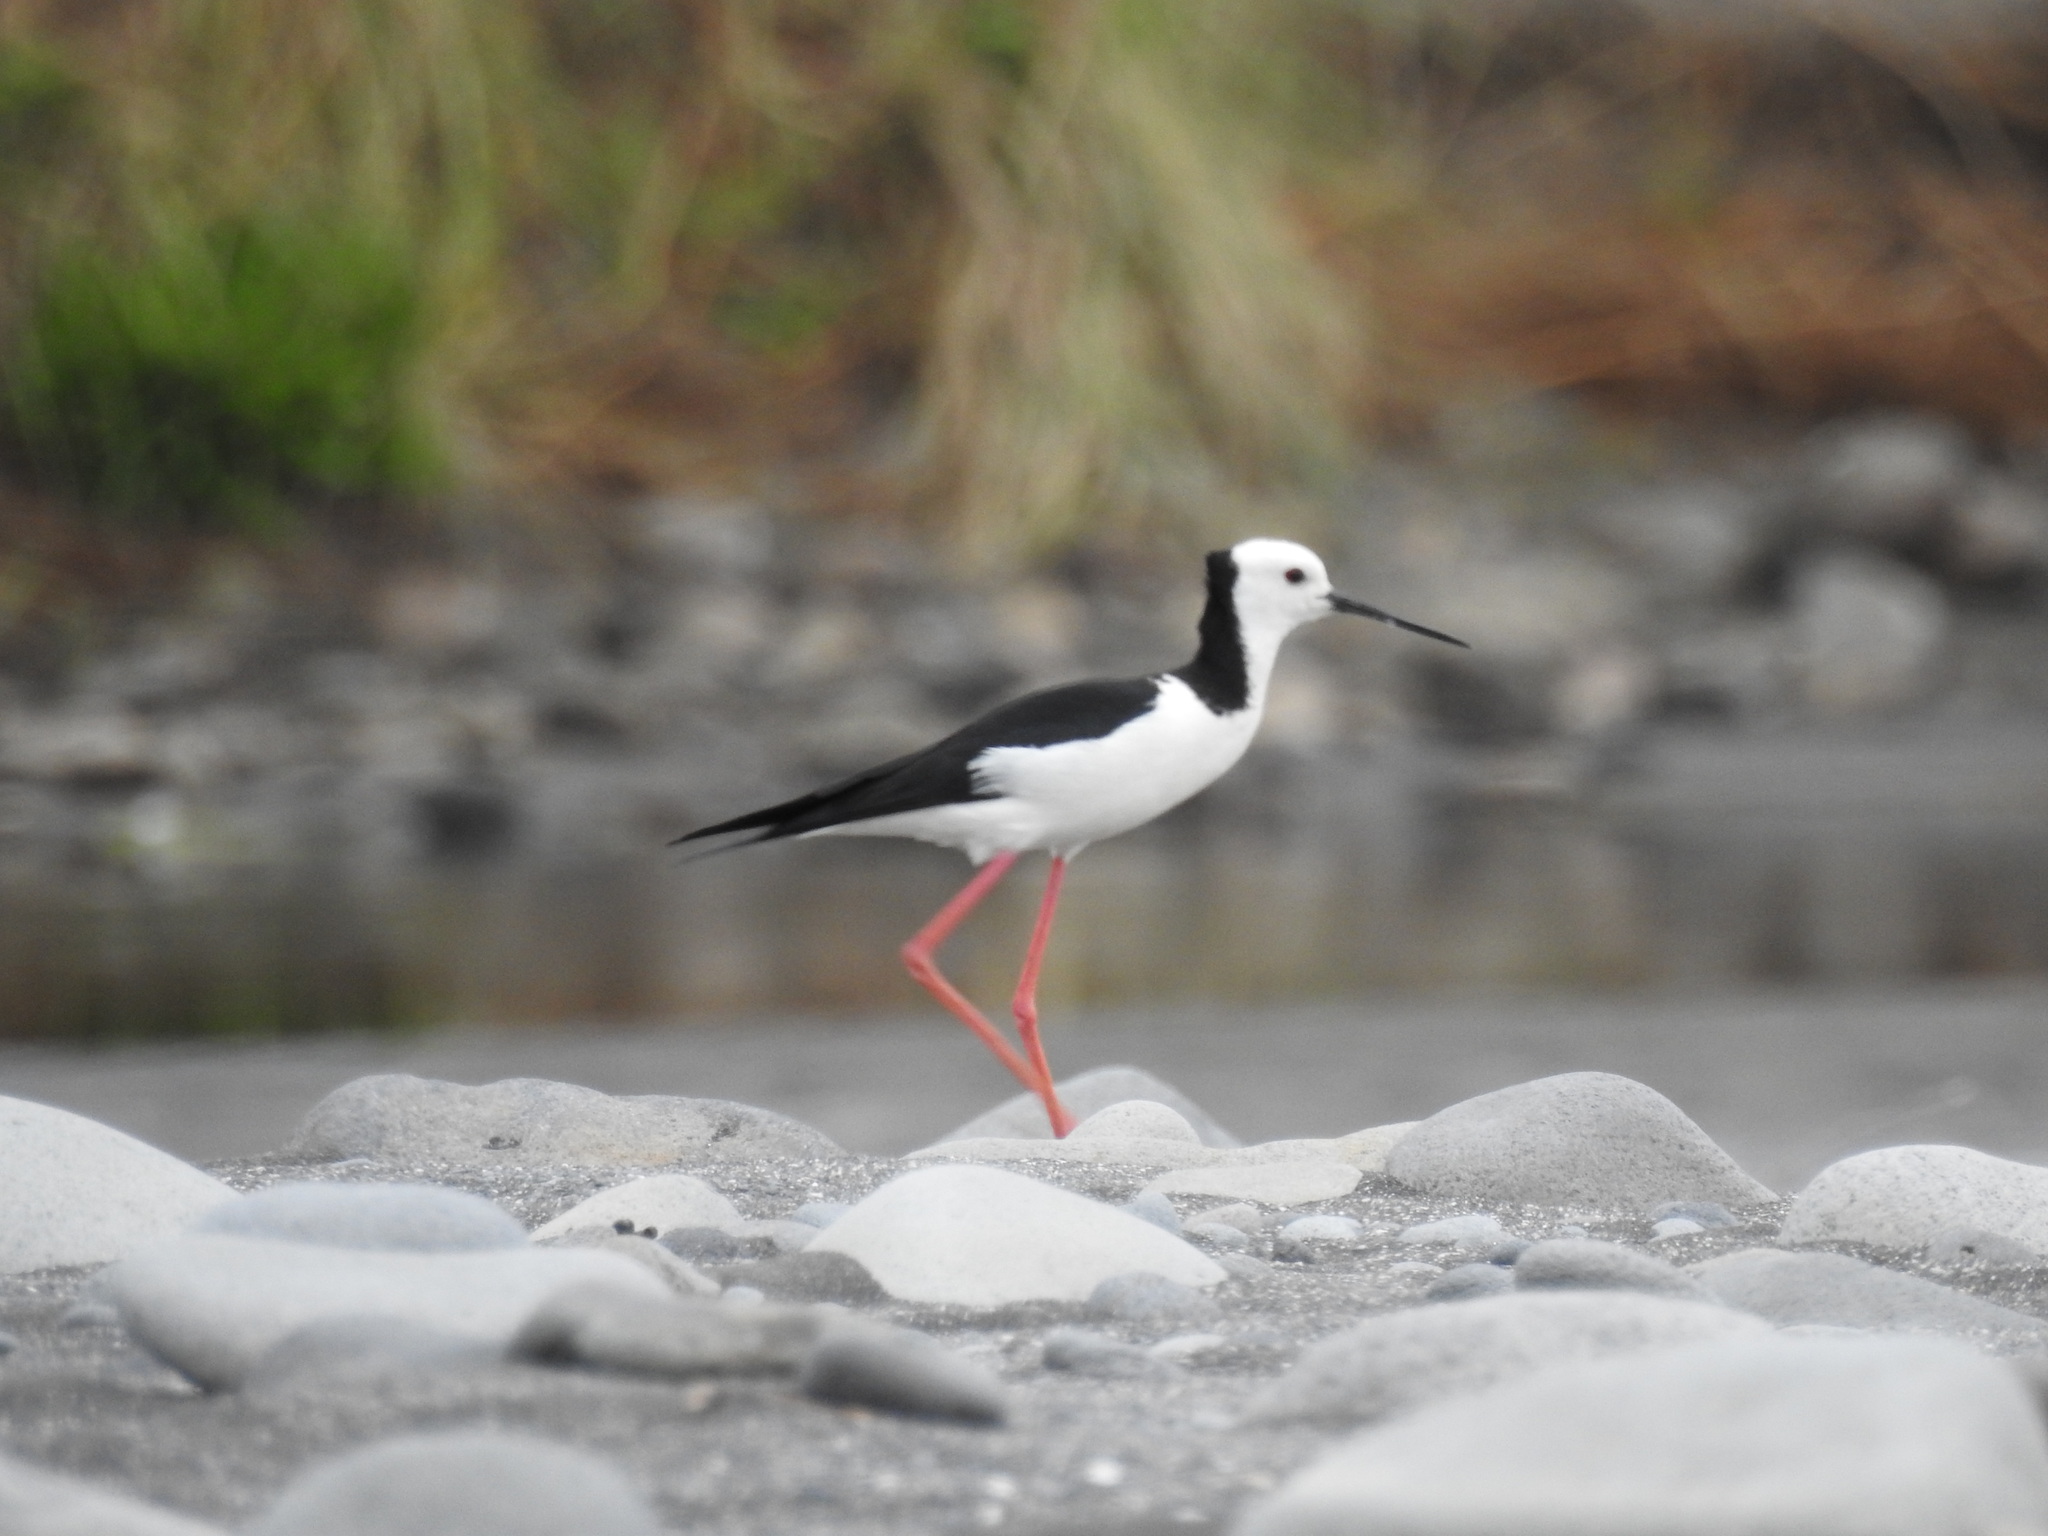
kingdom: Animalia
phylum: Chordata
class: Aves
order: Charadriiformes
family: Recurvirostridae
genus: Himantopus
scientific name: Himantopus leucocephalus
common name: White-headed stilt
